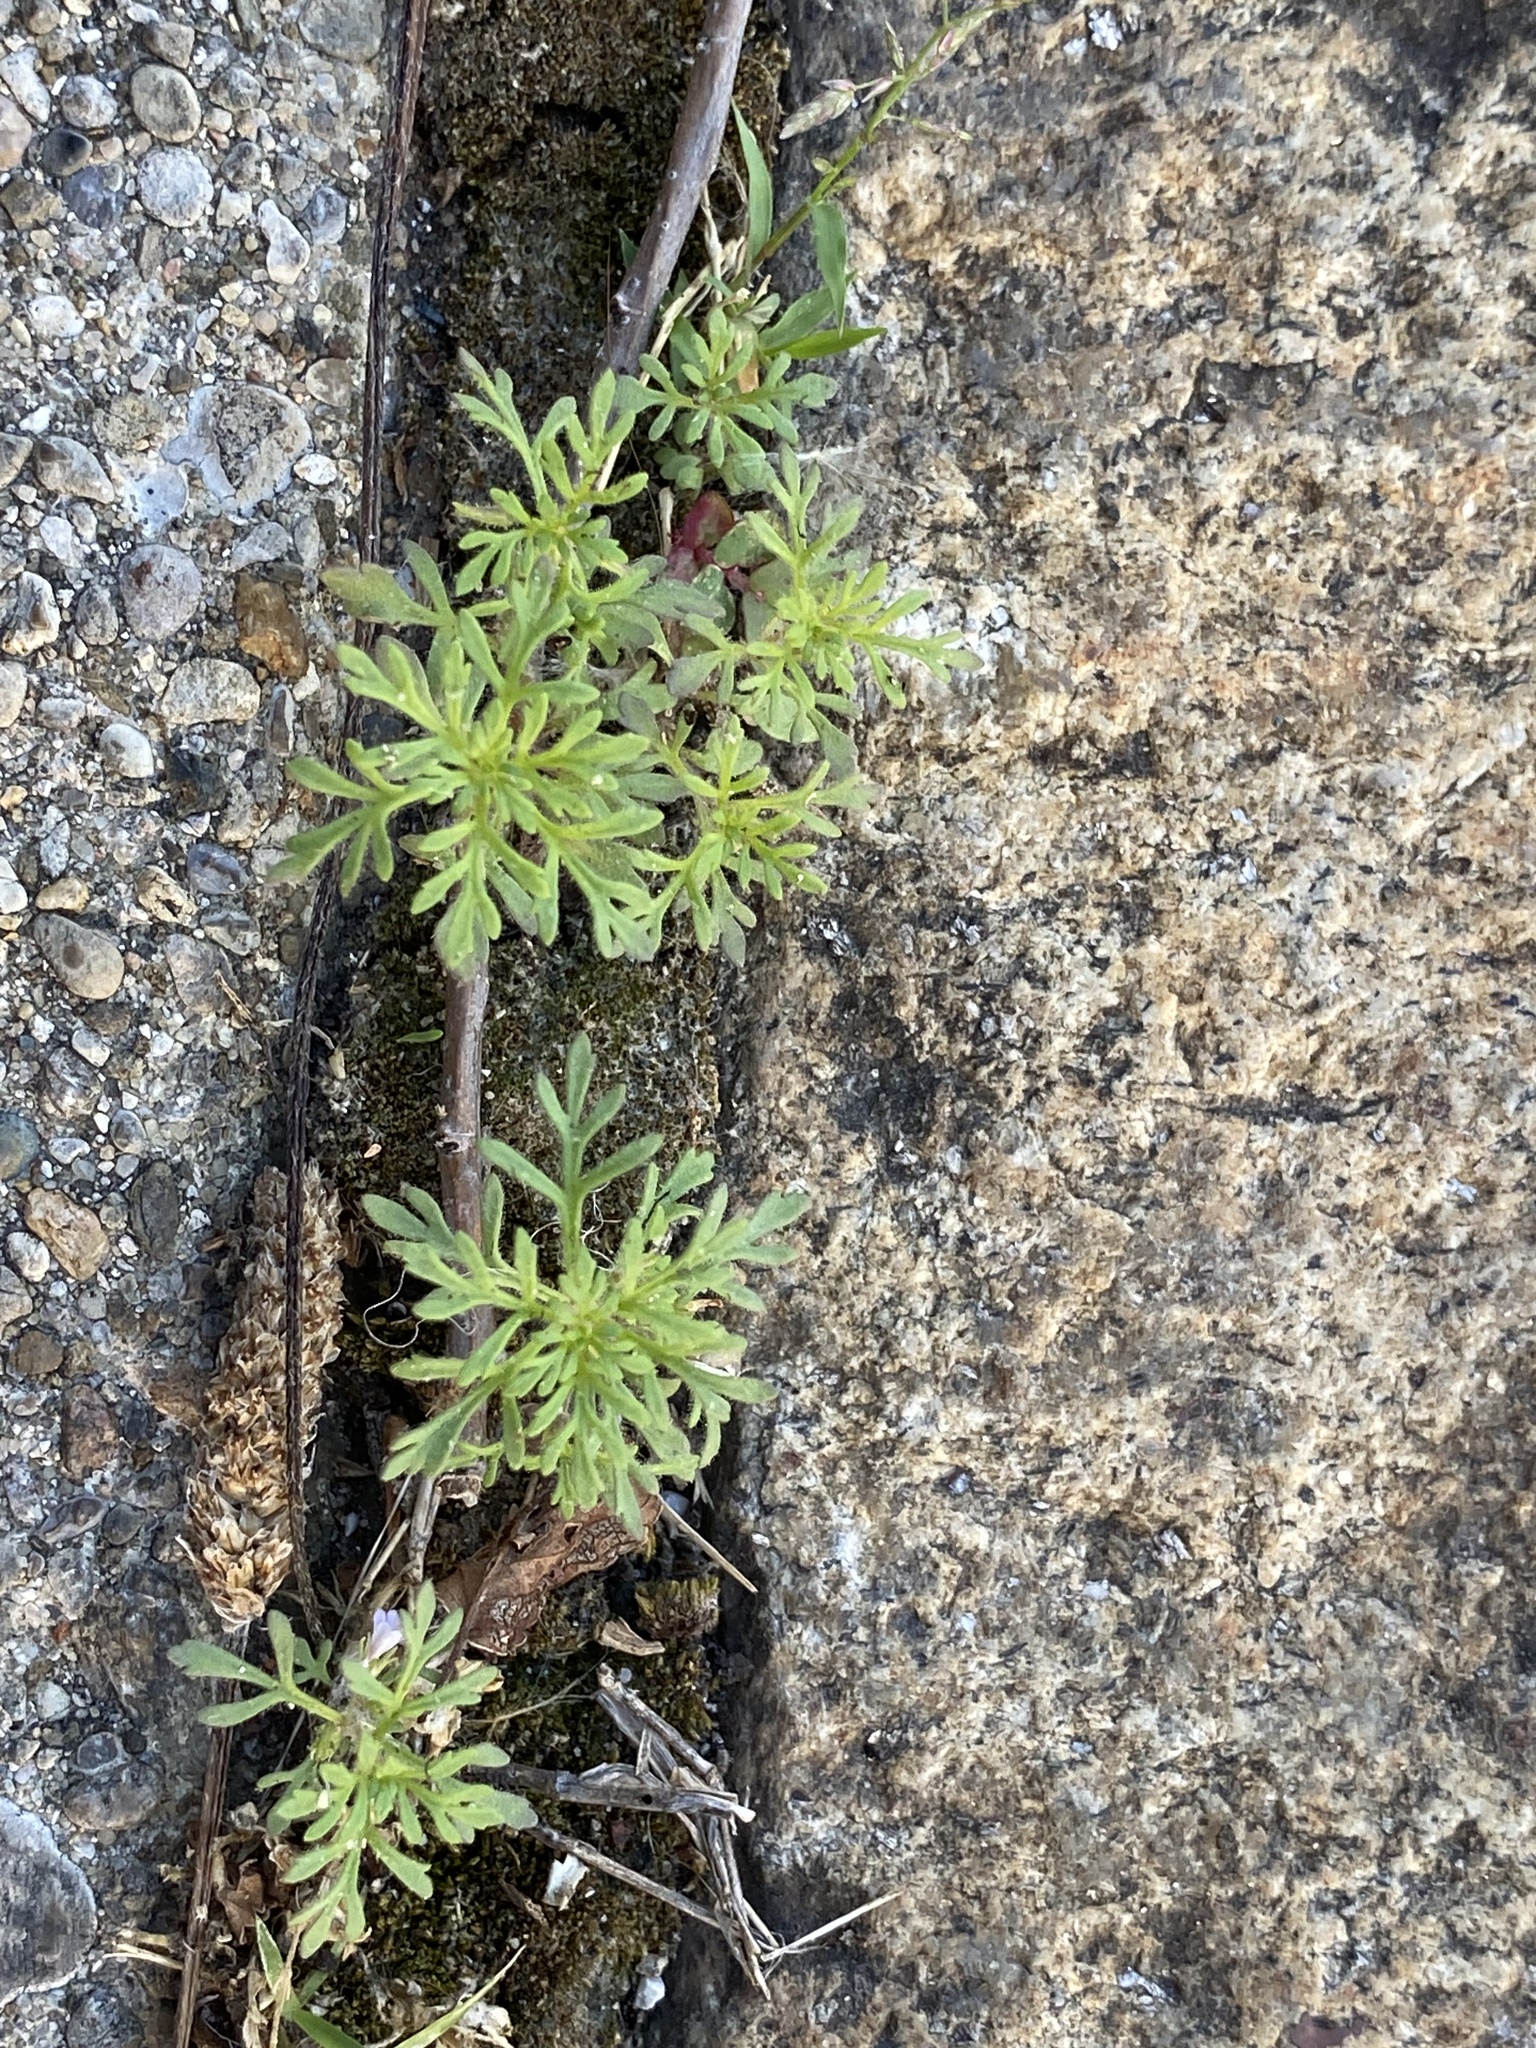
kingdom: Plantae
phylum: Tracheophyta
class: Magnoliopsida
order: Lamiales
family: Plantaginaceae
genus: Leucospora
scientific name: Leucospora multifida
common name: Narrow-leaf paleseed
